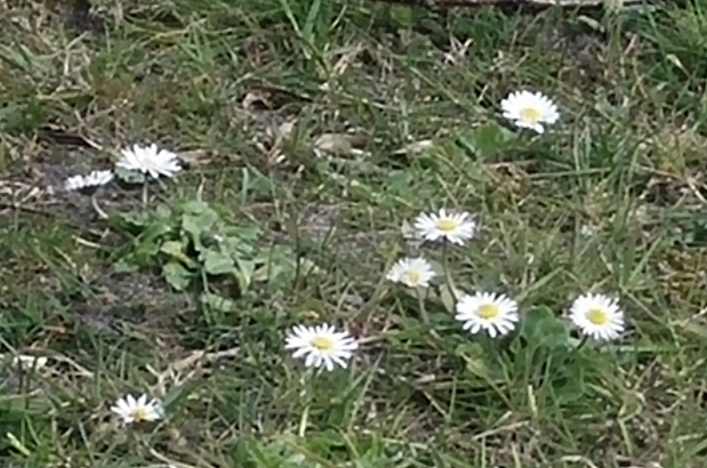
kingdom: Plantae
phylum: Tracheophyta
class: Magnoliopsida
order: Asterales
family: Asteraceae
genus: Bellis
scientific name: Bellis perennis
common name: Lawndaisy
